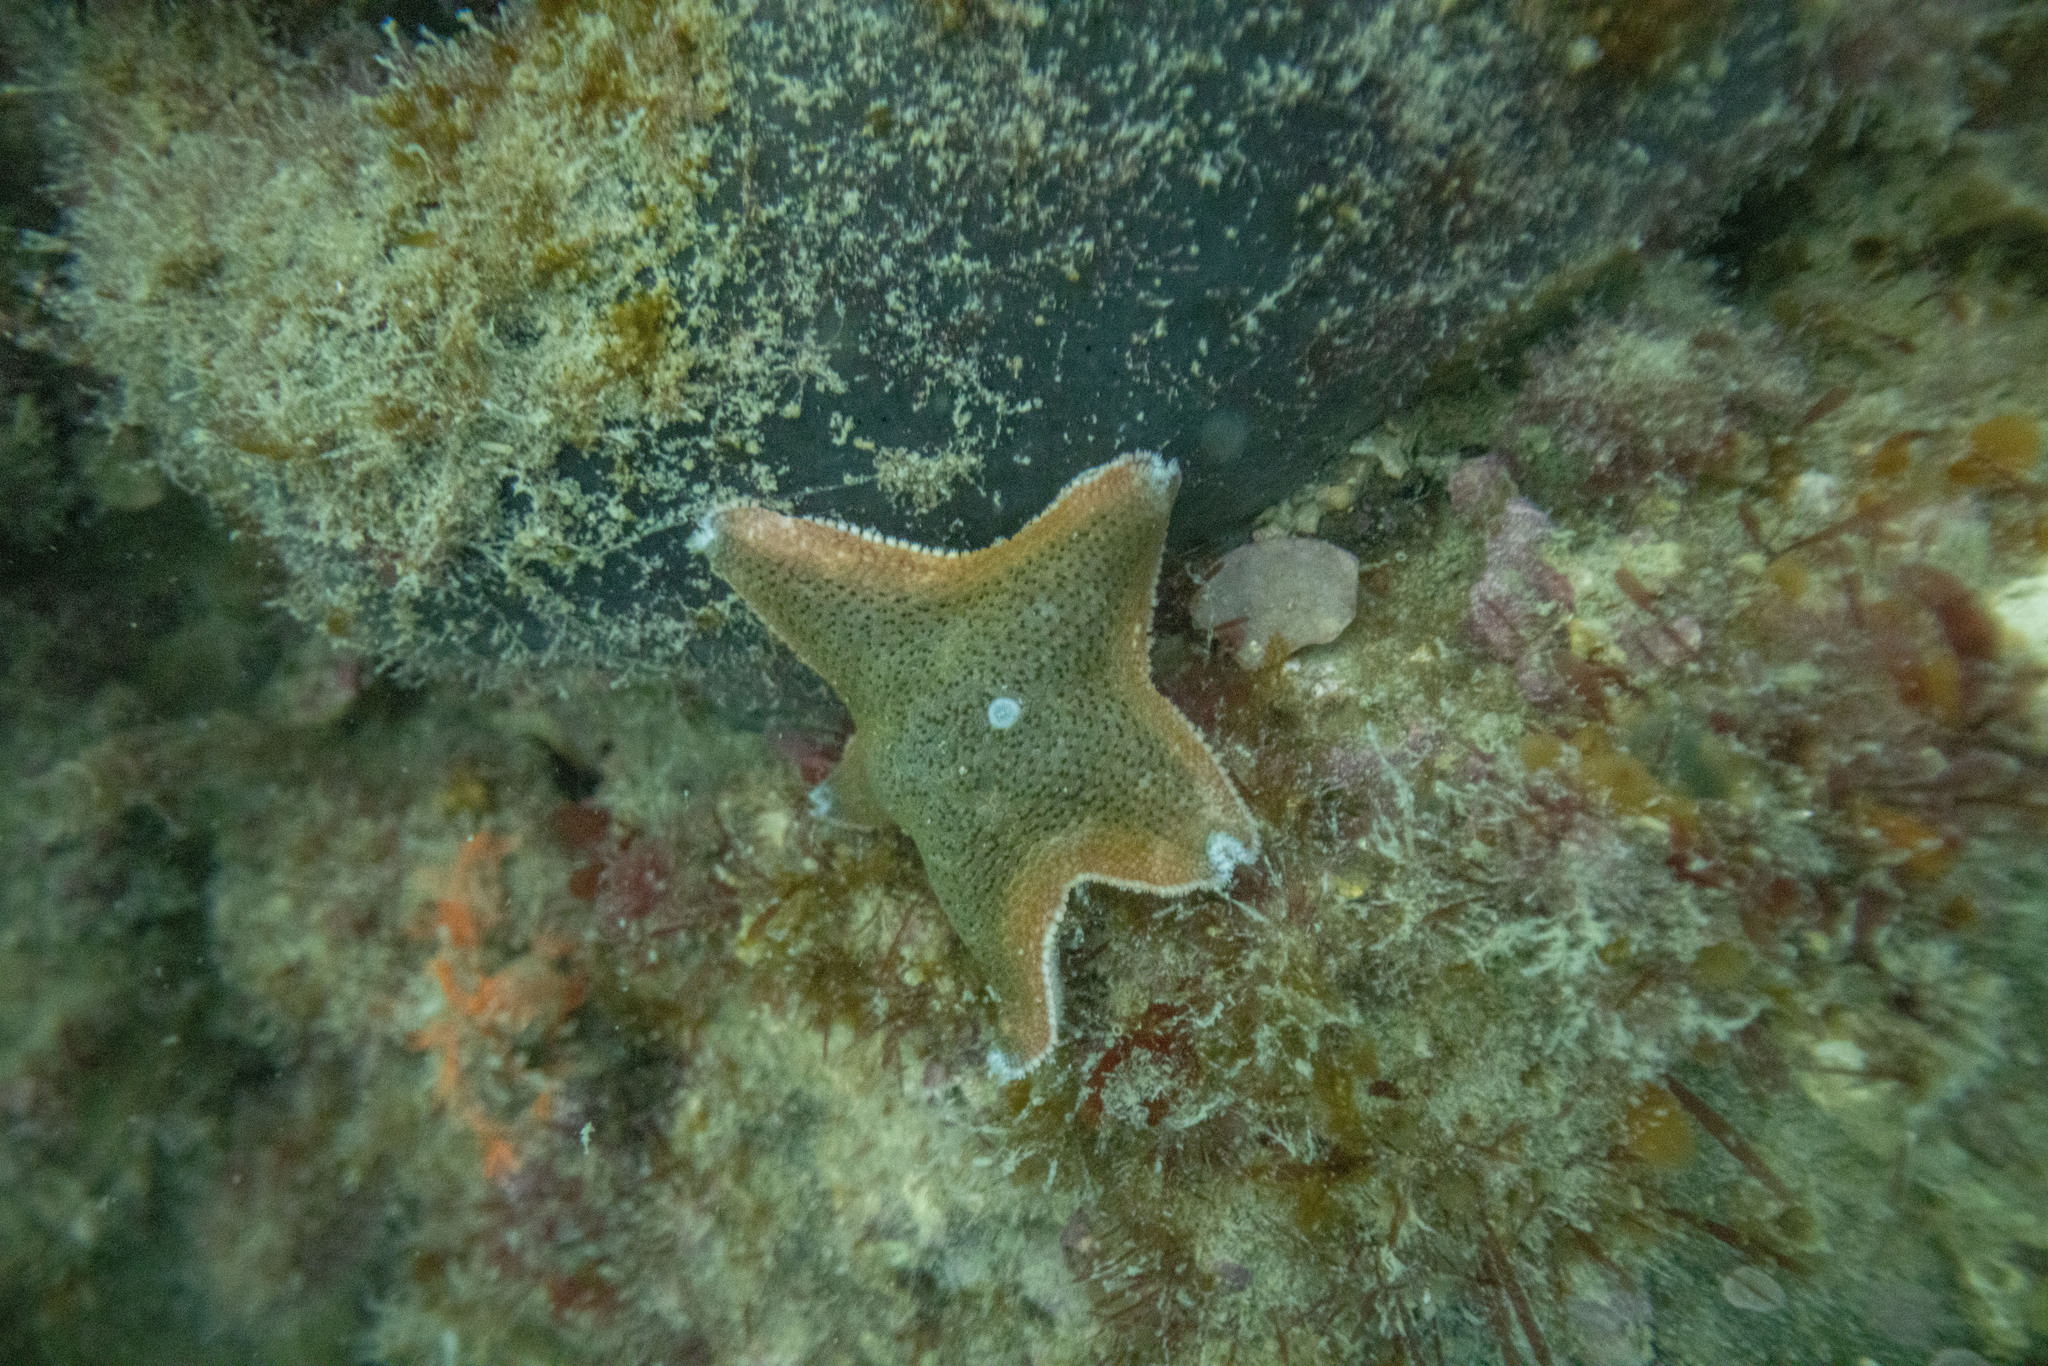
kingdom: Animalia
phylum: Echinodermata
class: Asteroidea
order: Valvatida
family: Asterinidae
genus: Patiriella
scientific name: Patiriella regularis
